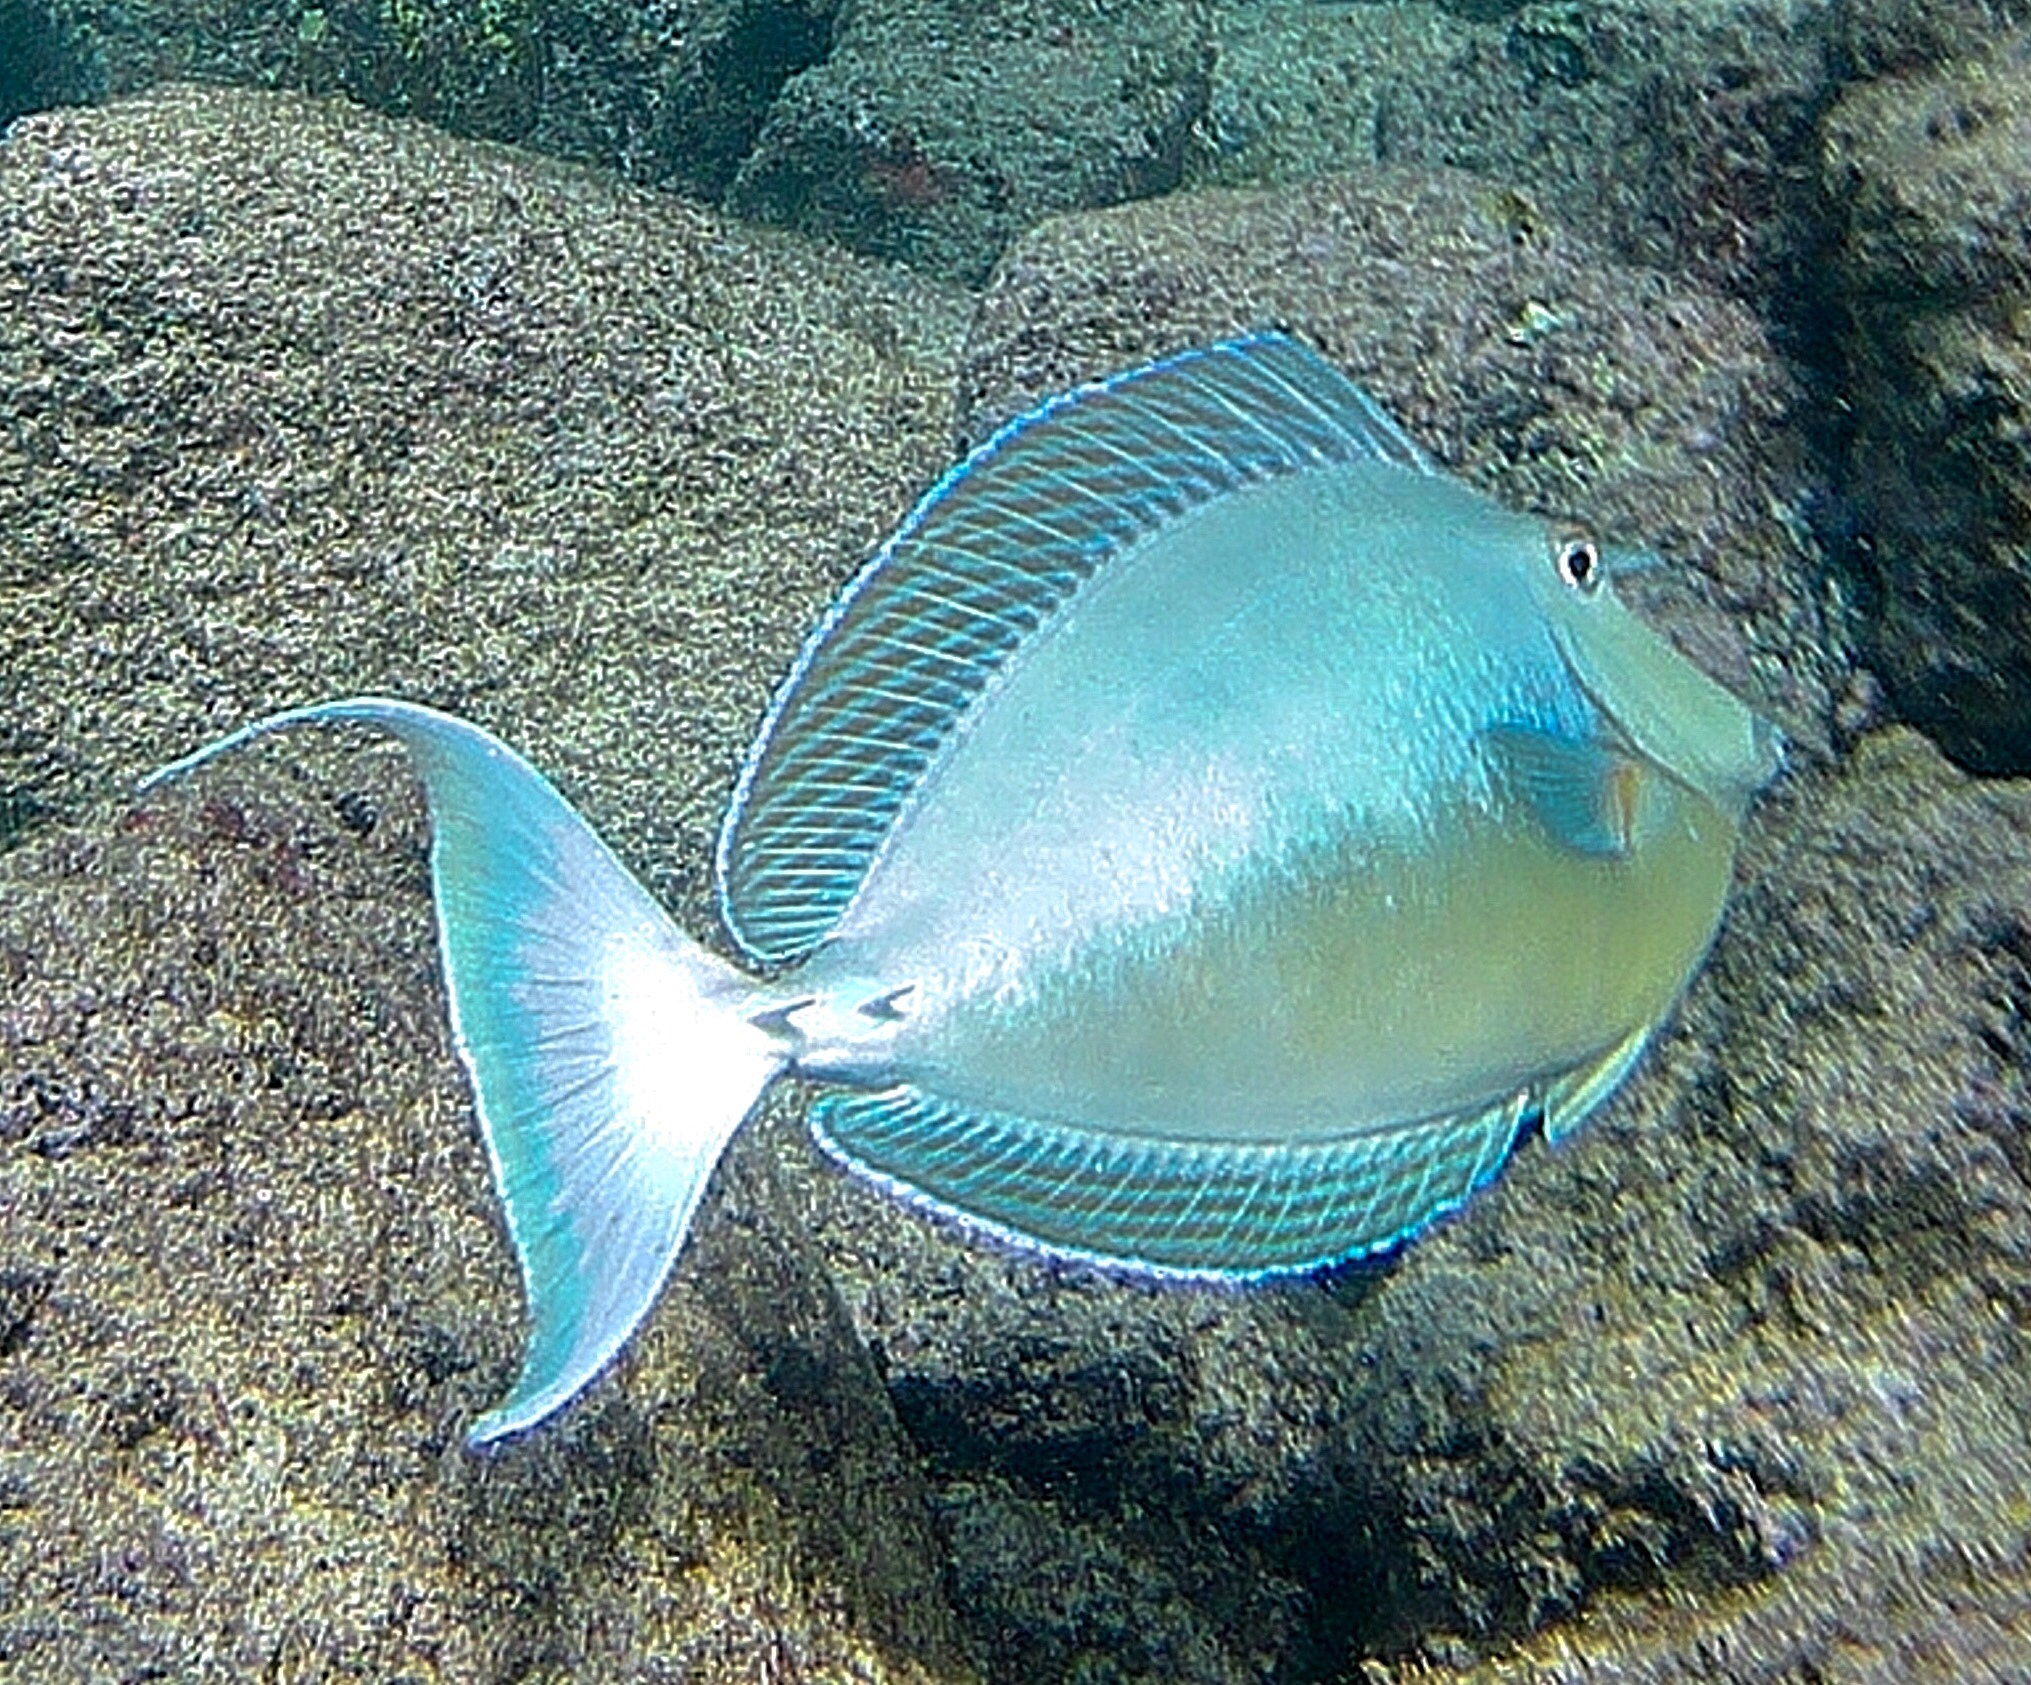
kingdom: Animalia
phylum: Chordata
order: Perciformes
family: Acanthuridae
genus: Naso
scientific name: Naso unicornis
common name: Bluespine unicornfish
